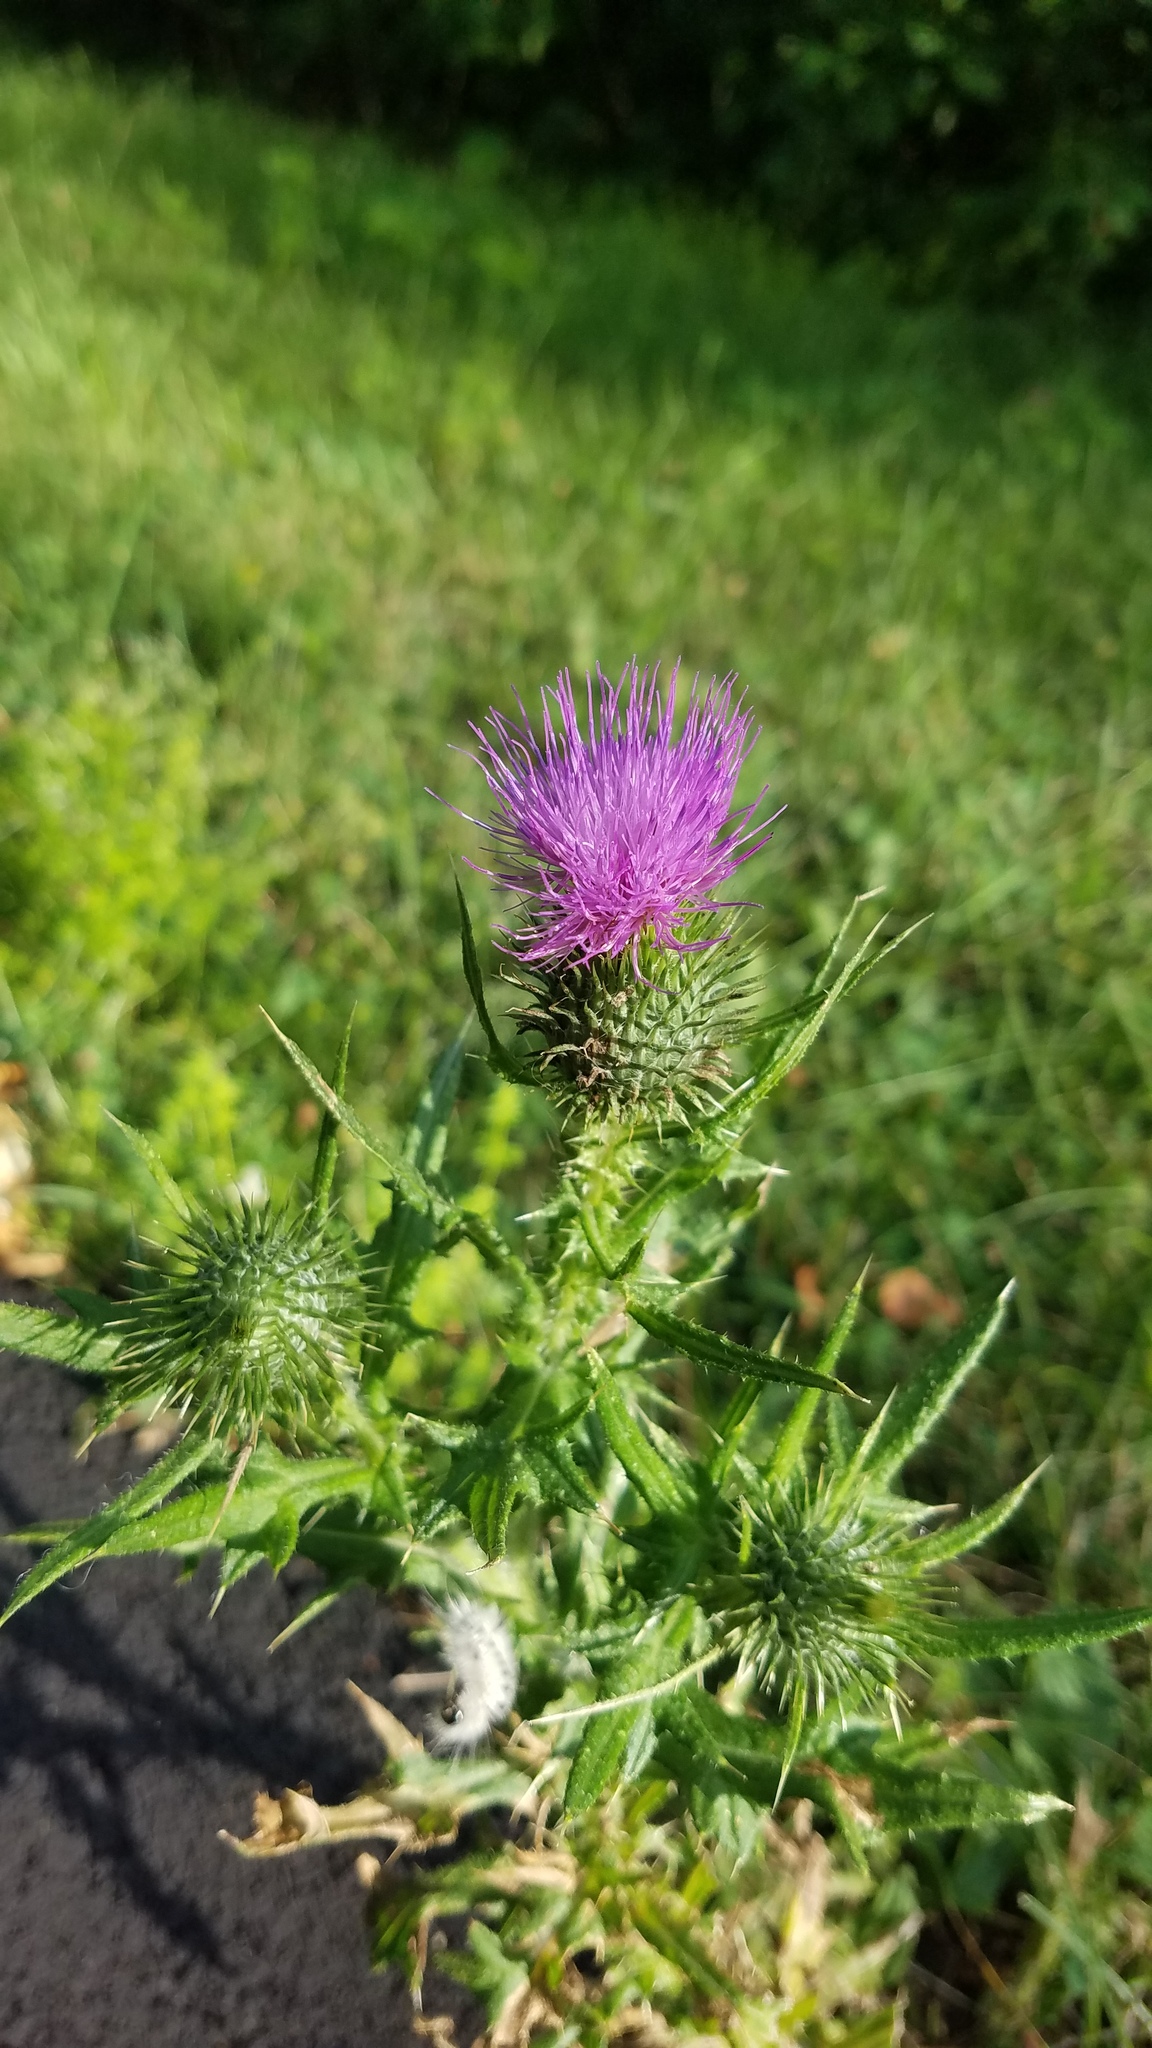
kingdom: Plantae
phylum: Tracheophyta
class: Magnoliopsida
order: Asterales
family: Asteraceae
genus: Cirsium
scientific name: Cirsium vulgare
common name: Bull thistle
